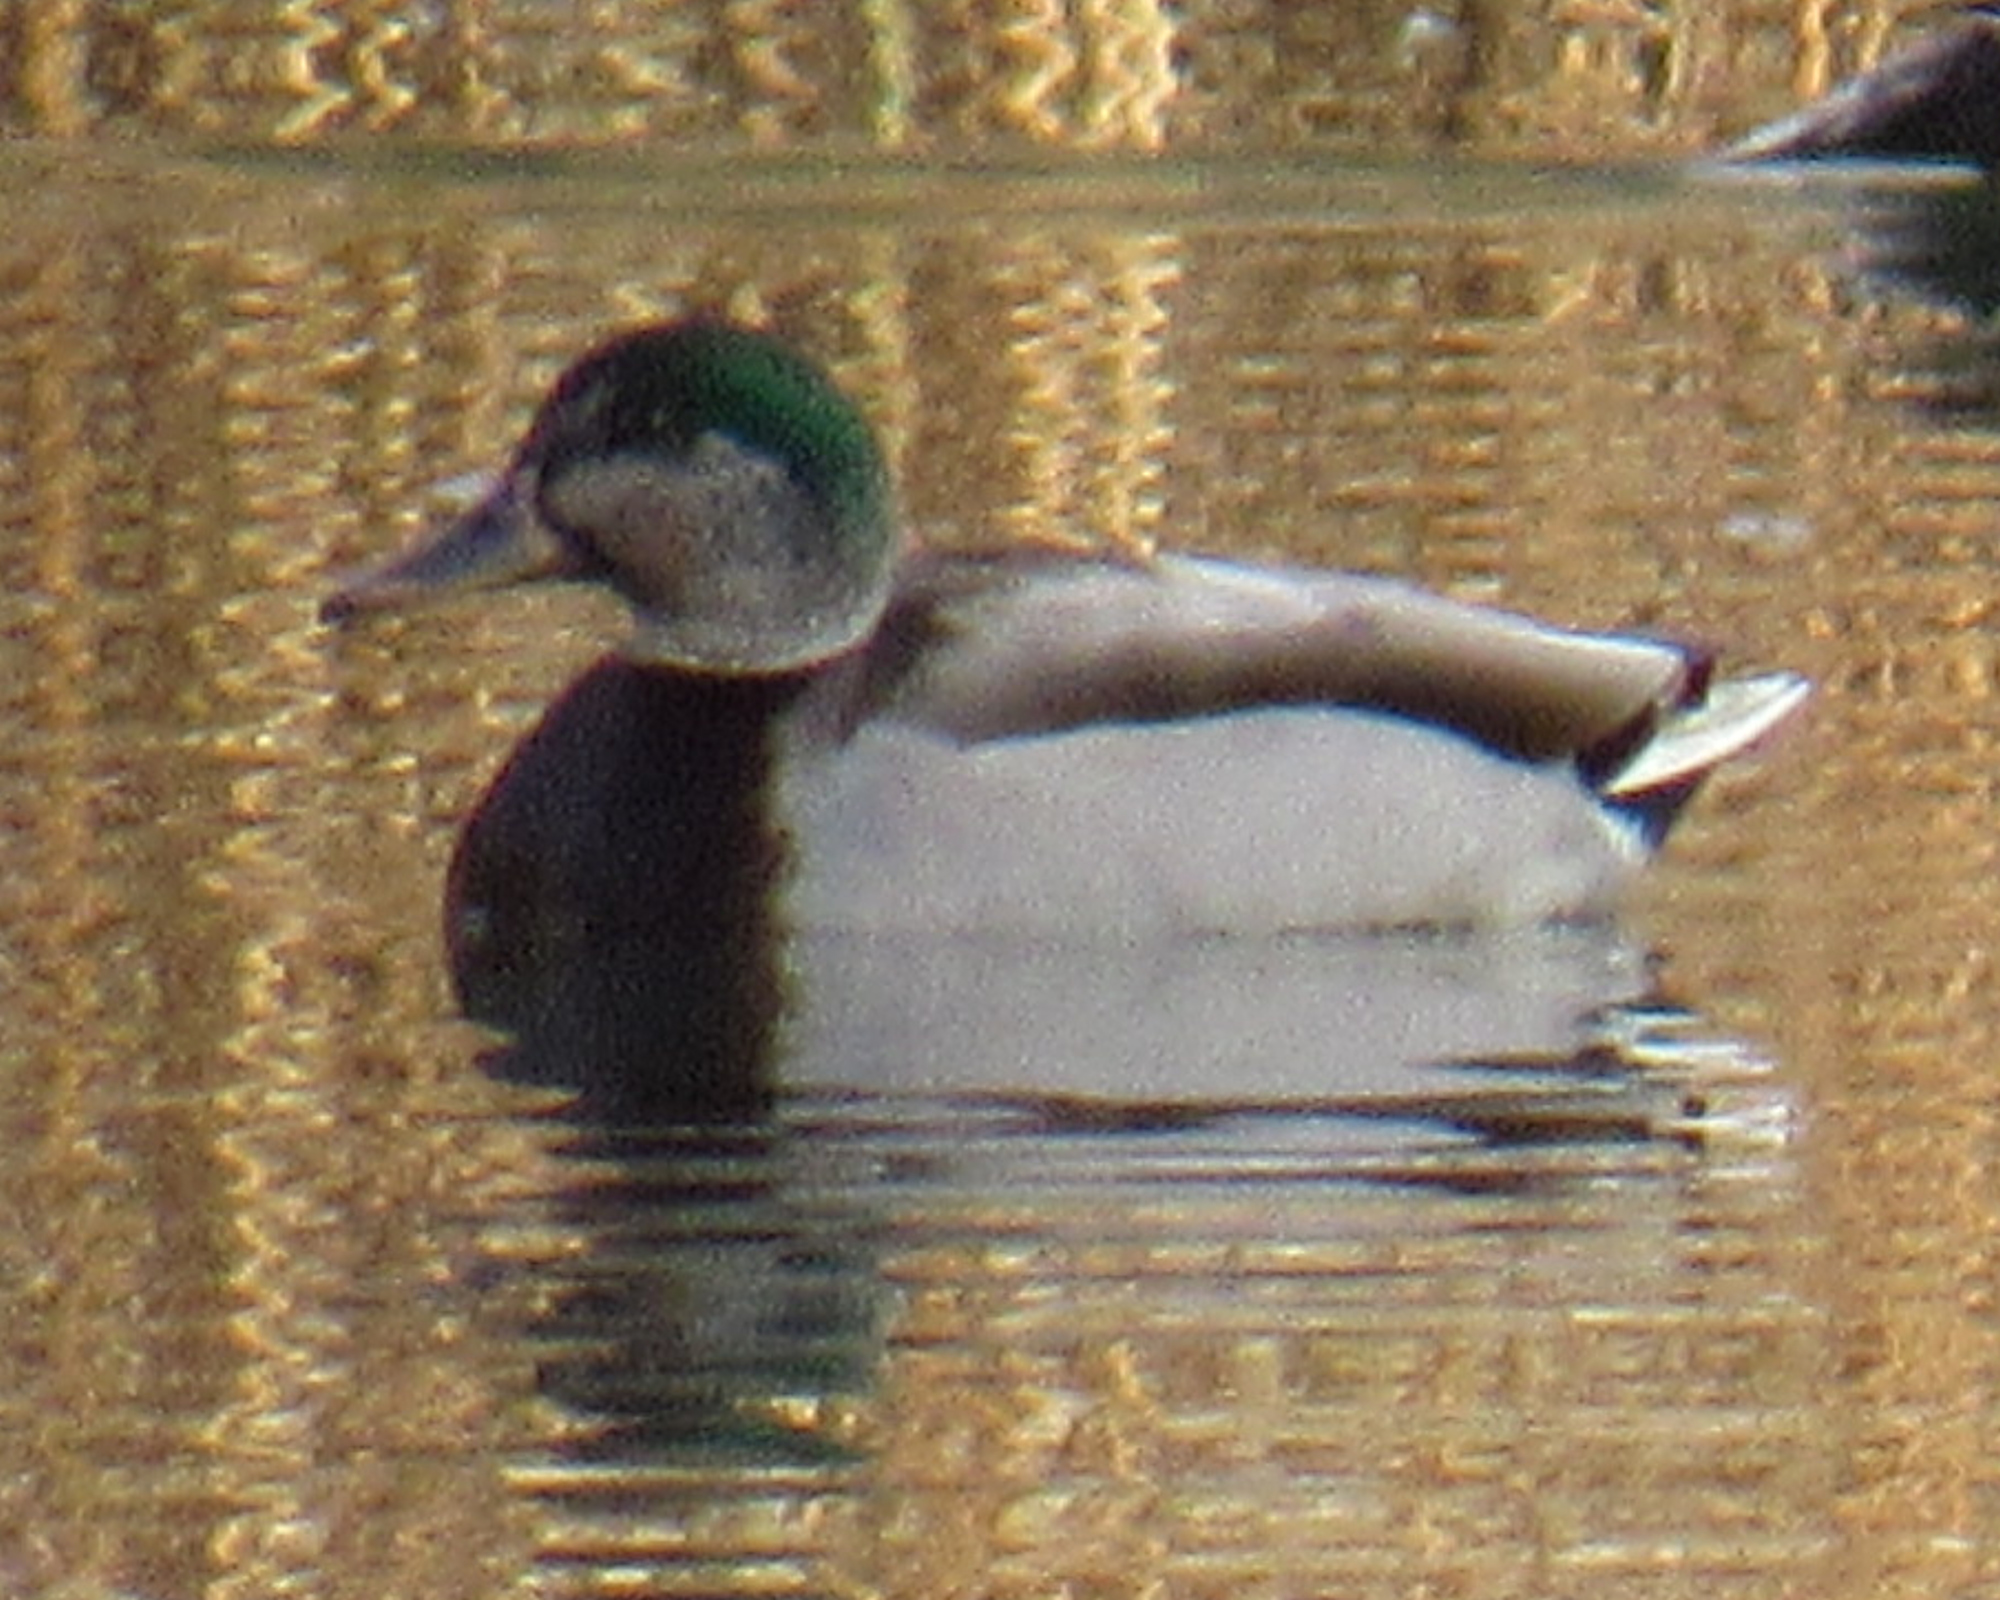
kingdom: Animalia
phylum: Chordata
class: Aves
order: Anseriformes
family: Anatidae
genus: Anas
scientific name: Anas platyrhynchos
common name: Mallard
